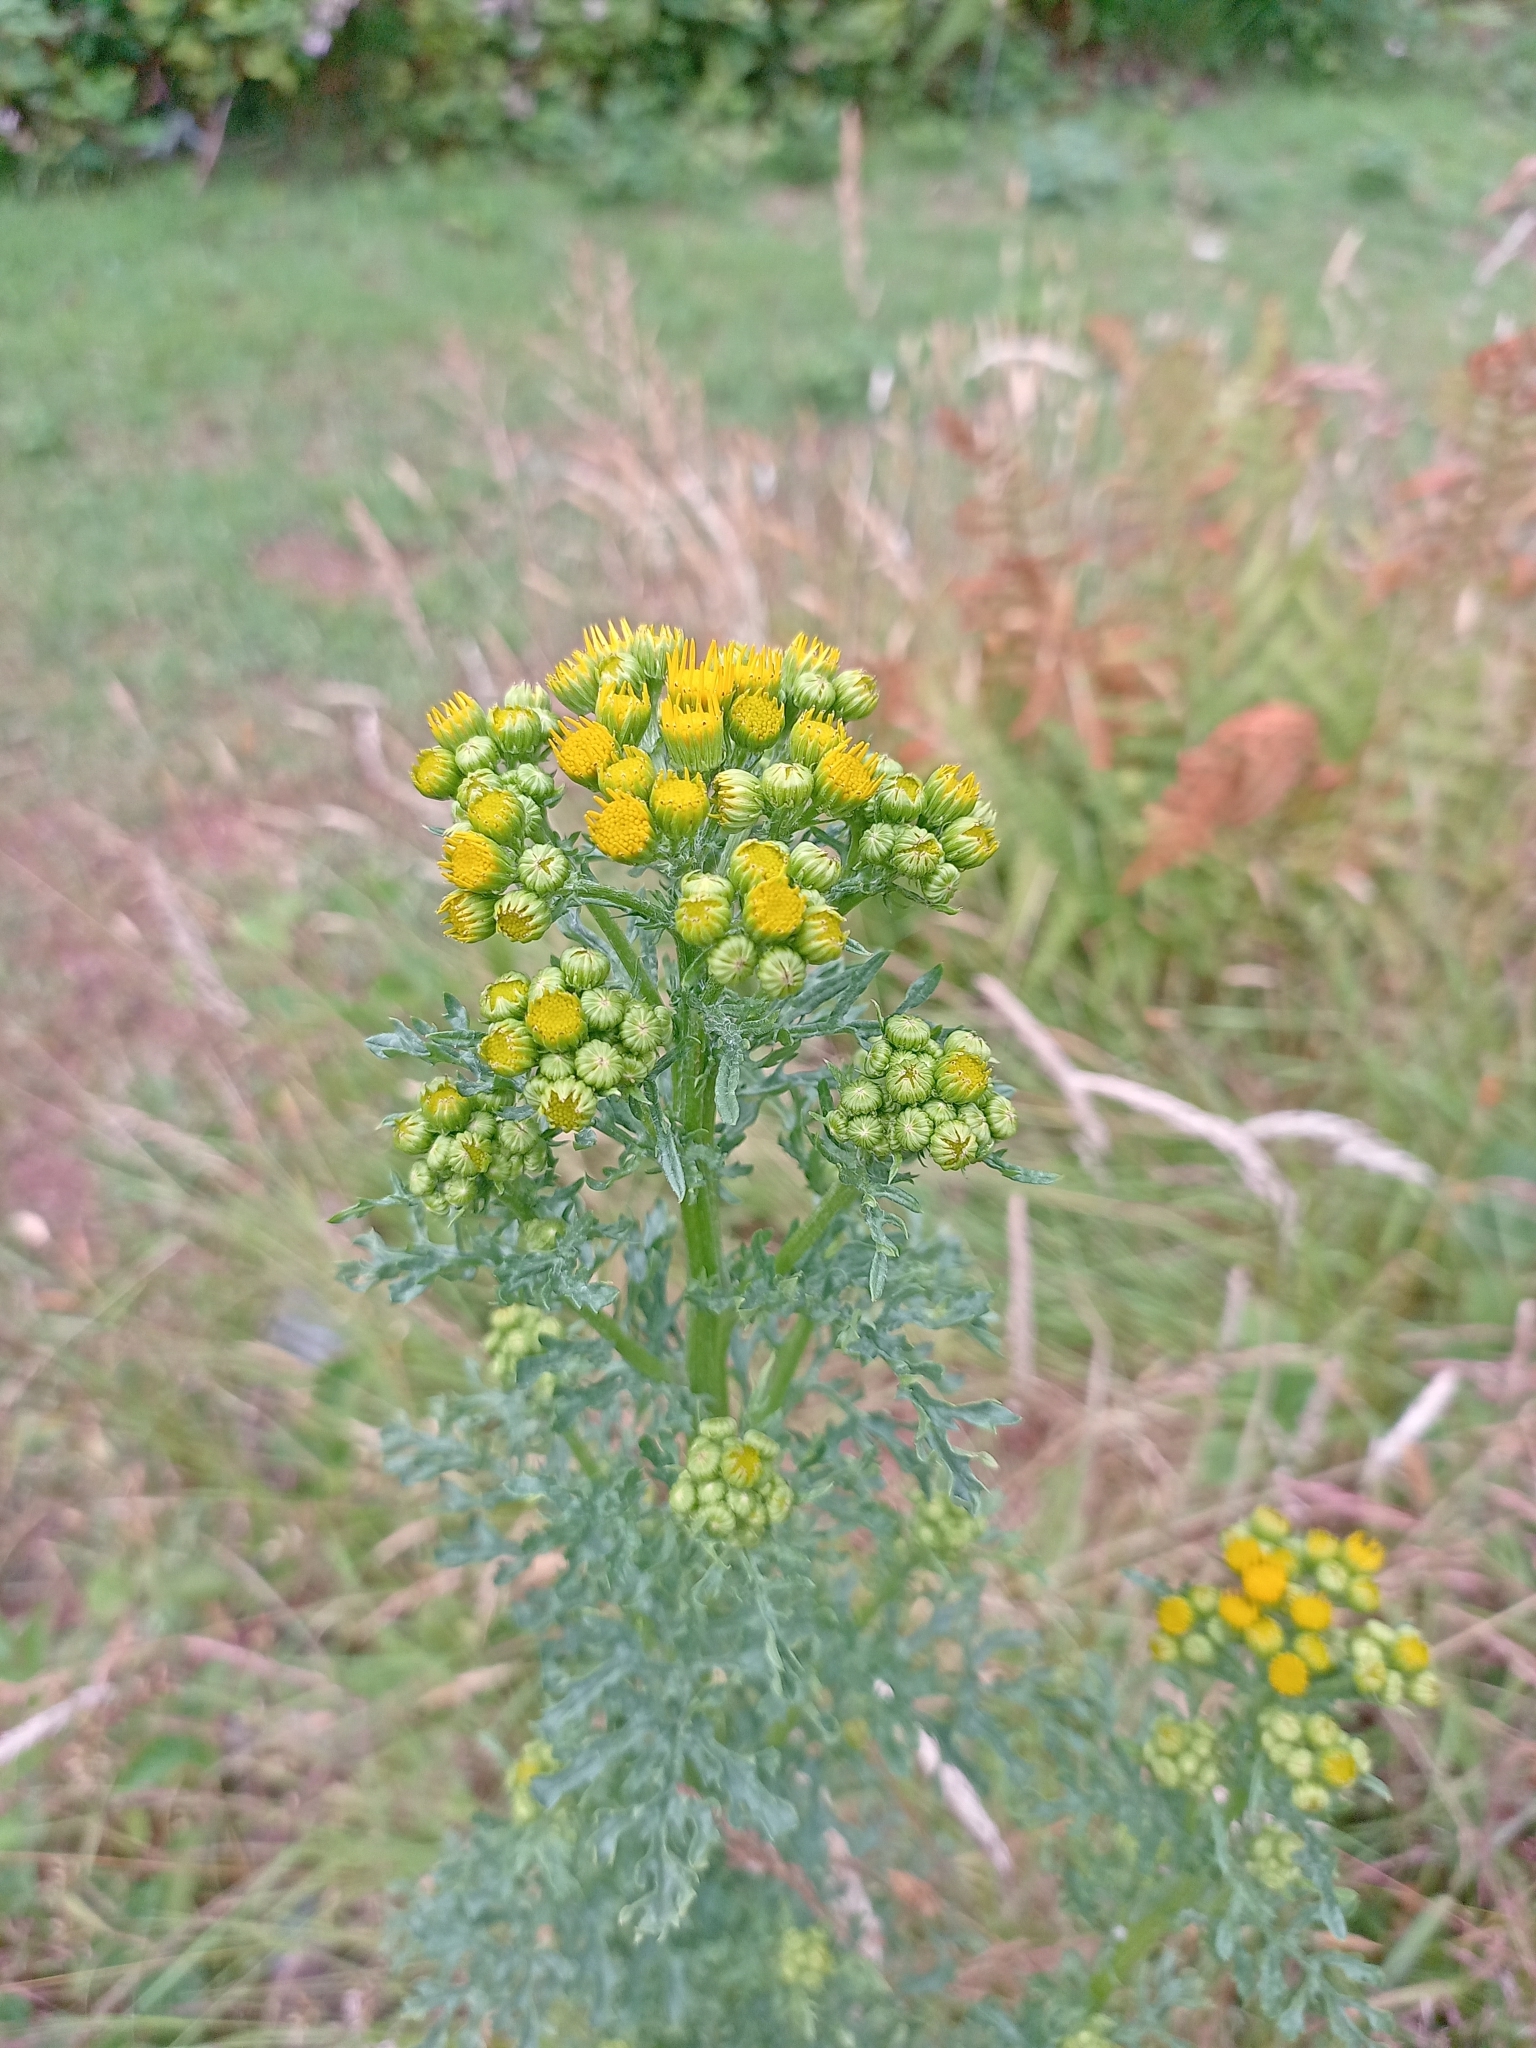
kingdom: Plantae
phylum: Tracheophyta
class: Magnoliopsida
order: Asterales
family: Asteraceae
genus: Jacobaea
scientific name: Jacobaea vulgaris
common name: Stinking willie
